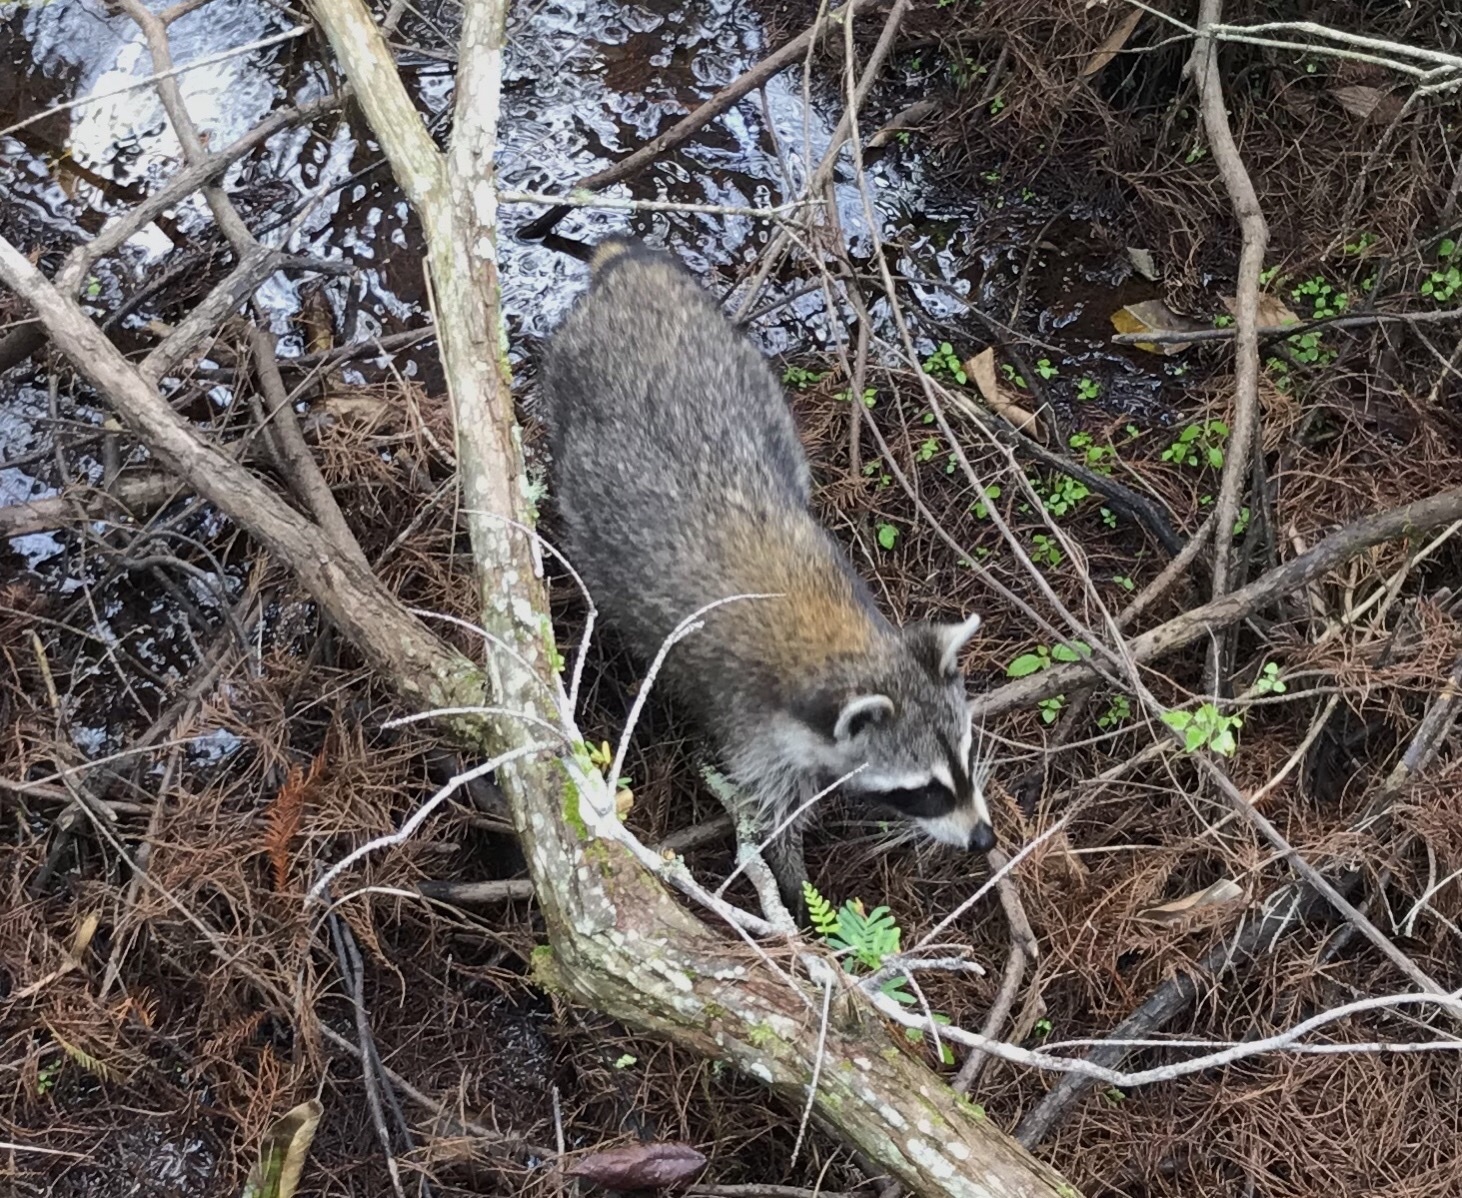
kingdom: Animalia
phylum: Chordata
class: Mammalia
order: Carnivora
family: Procyonidae
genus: Procyon
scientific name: Procyon lotor
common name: Raccoon
